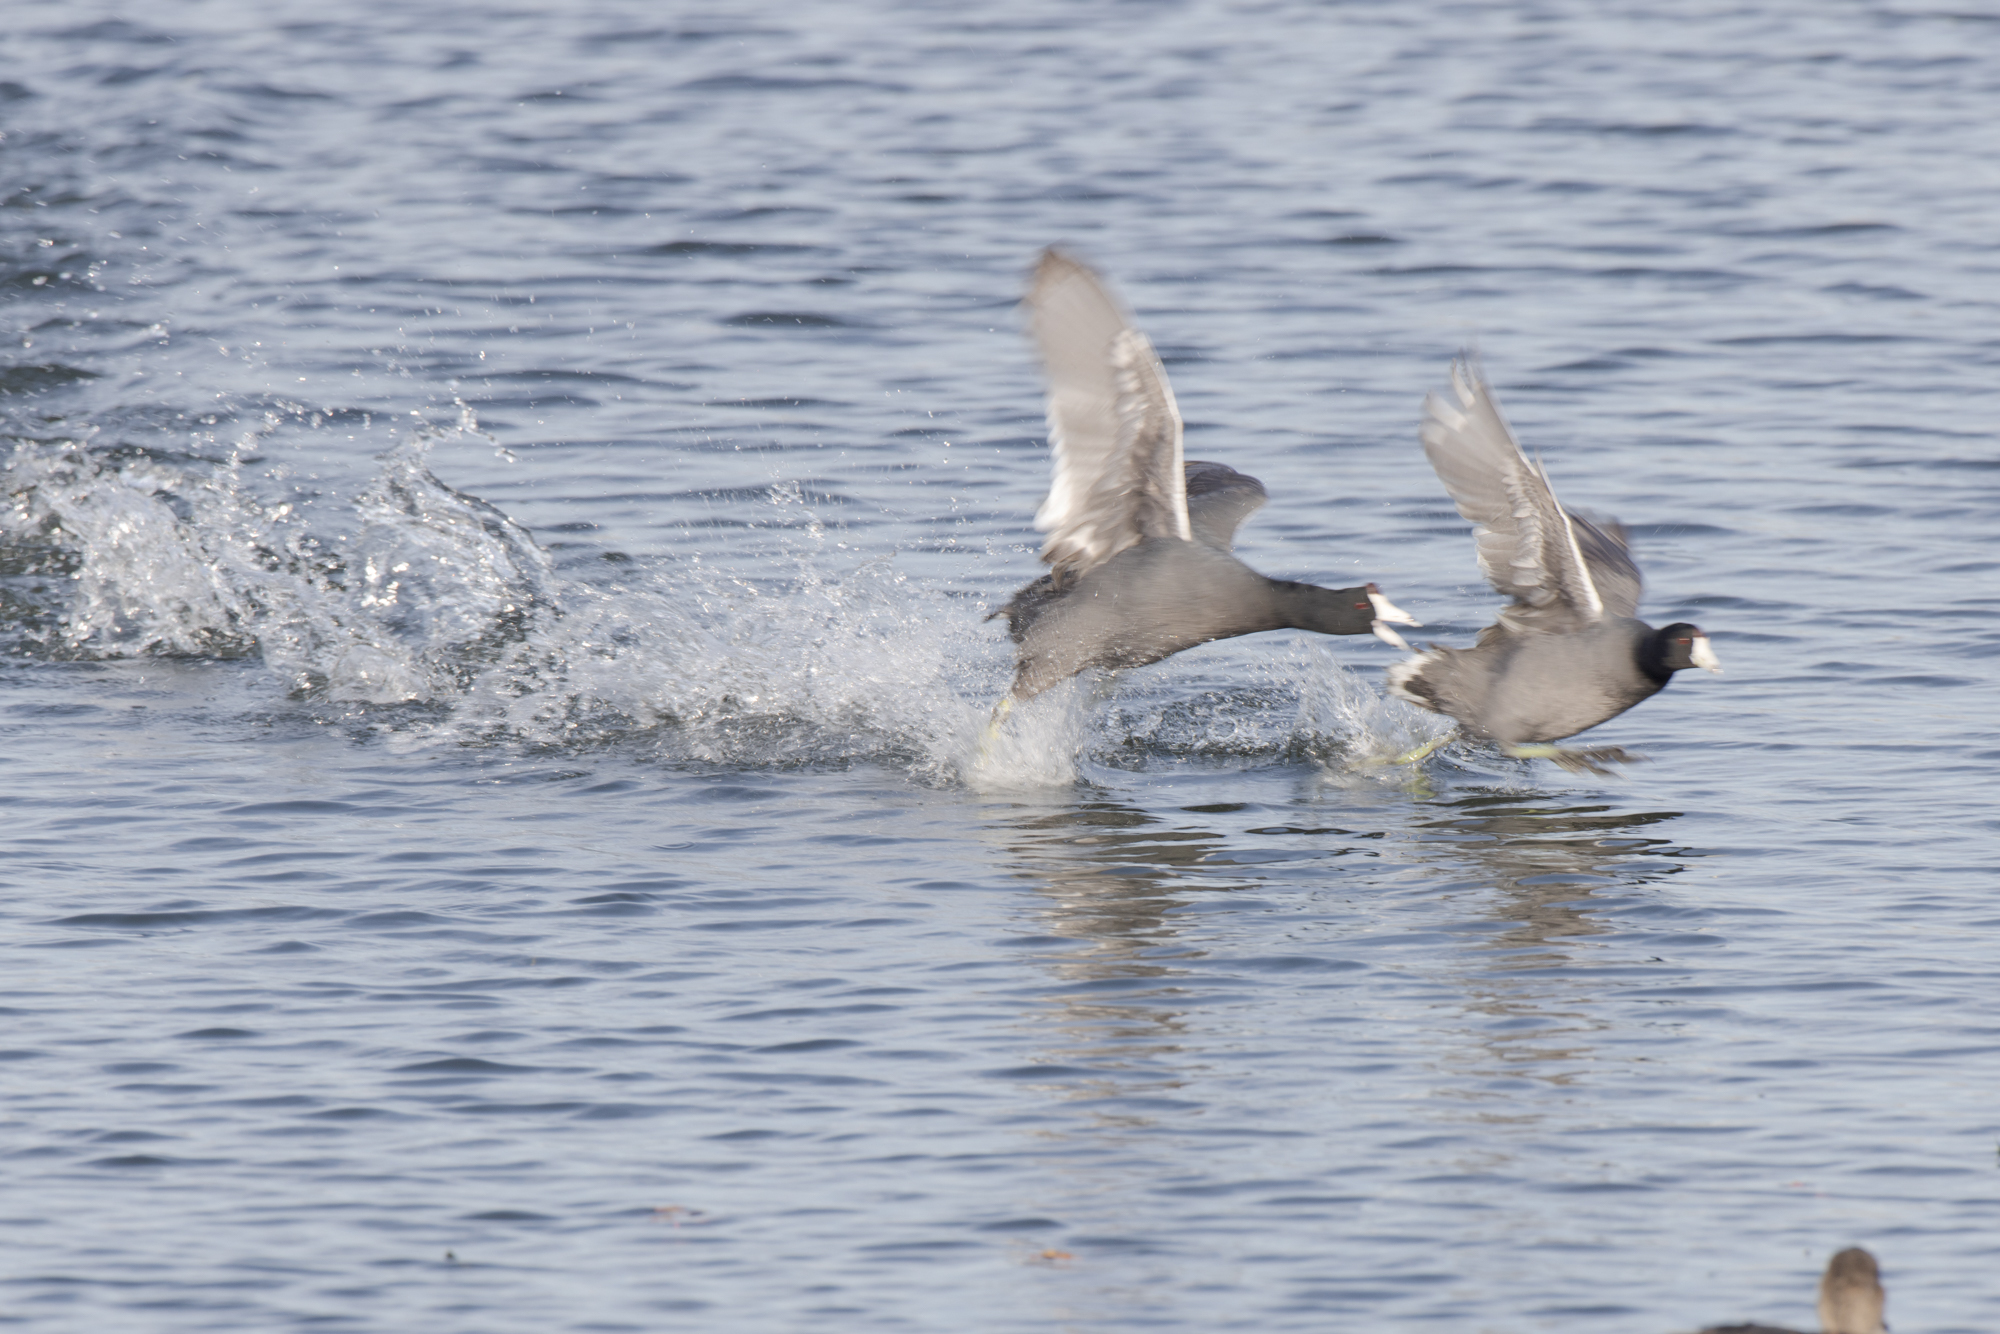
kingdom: Animalia
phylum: Chordata
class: Aves
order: Gruiformes
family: Rallidae
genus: Fulica
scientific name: Fulica americana
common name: American coot
